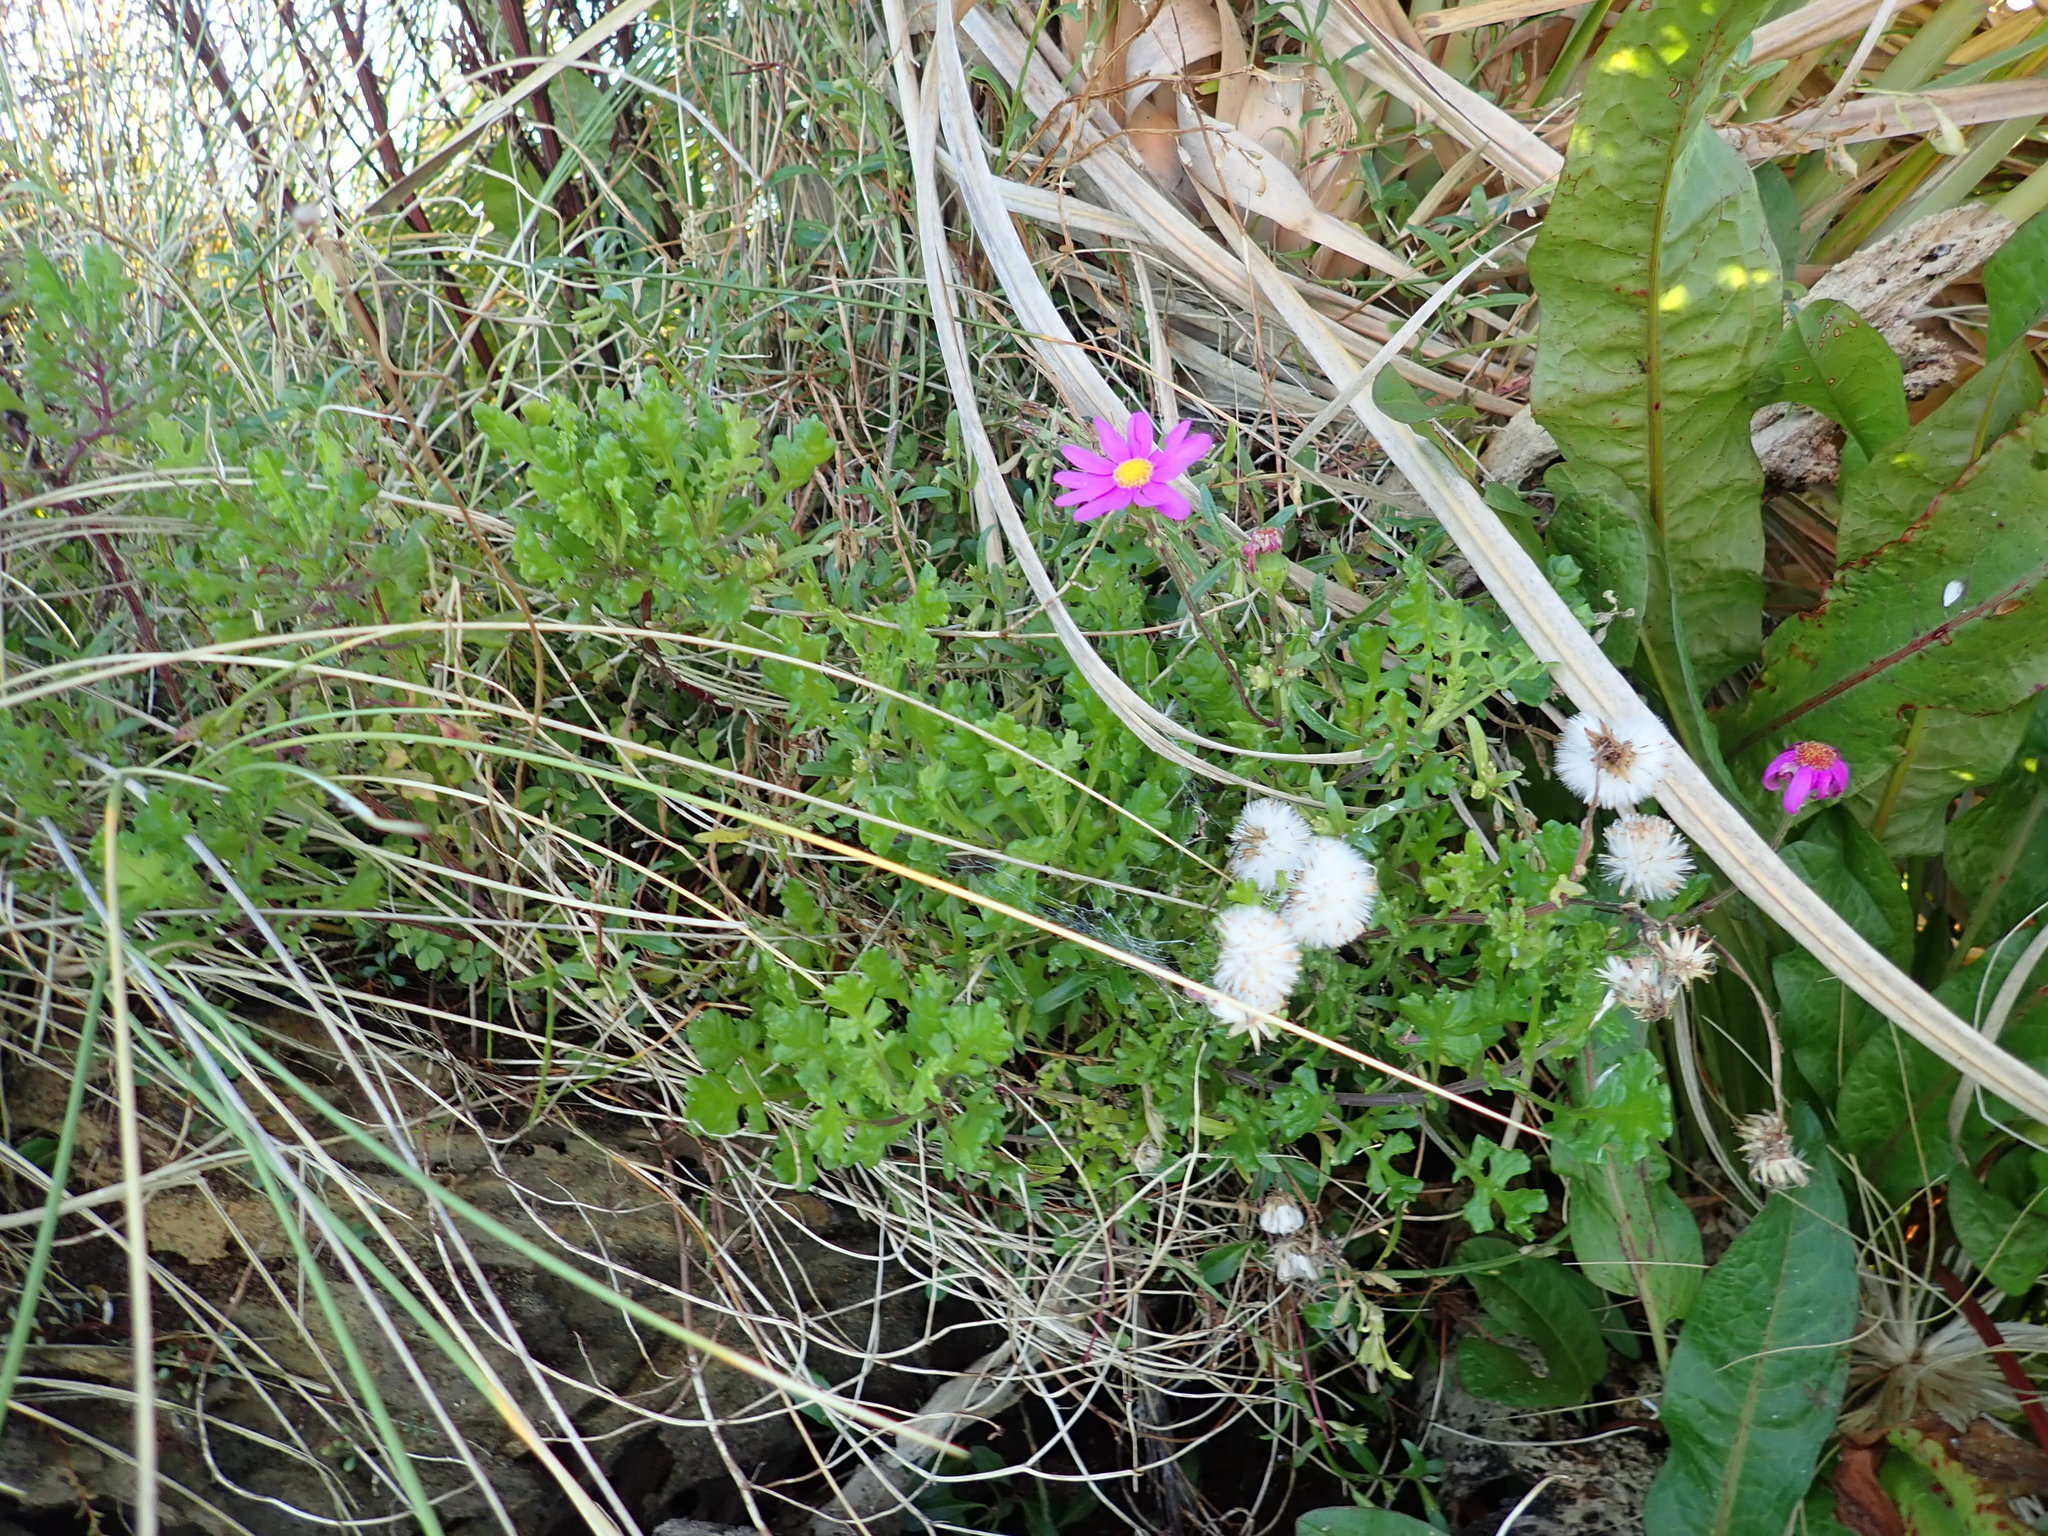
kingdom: Plantae
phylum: Tracheophyta
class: Magnoliopsida
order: Asterales
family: Asteraceae
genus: Senecio
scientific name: Senecio elegans
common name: Purple groundsel
